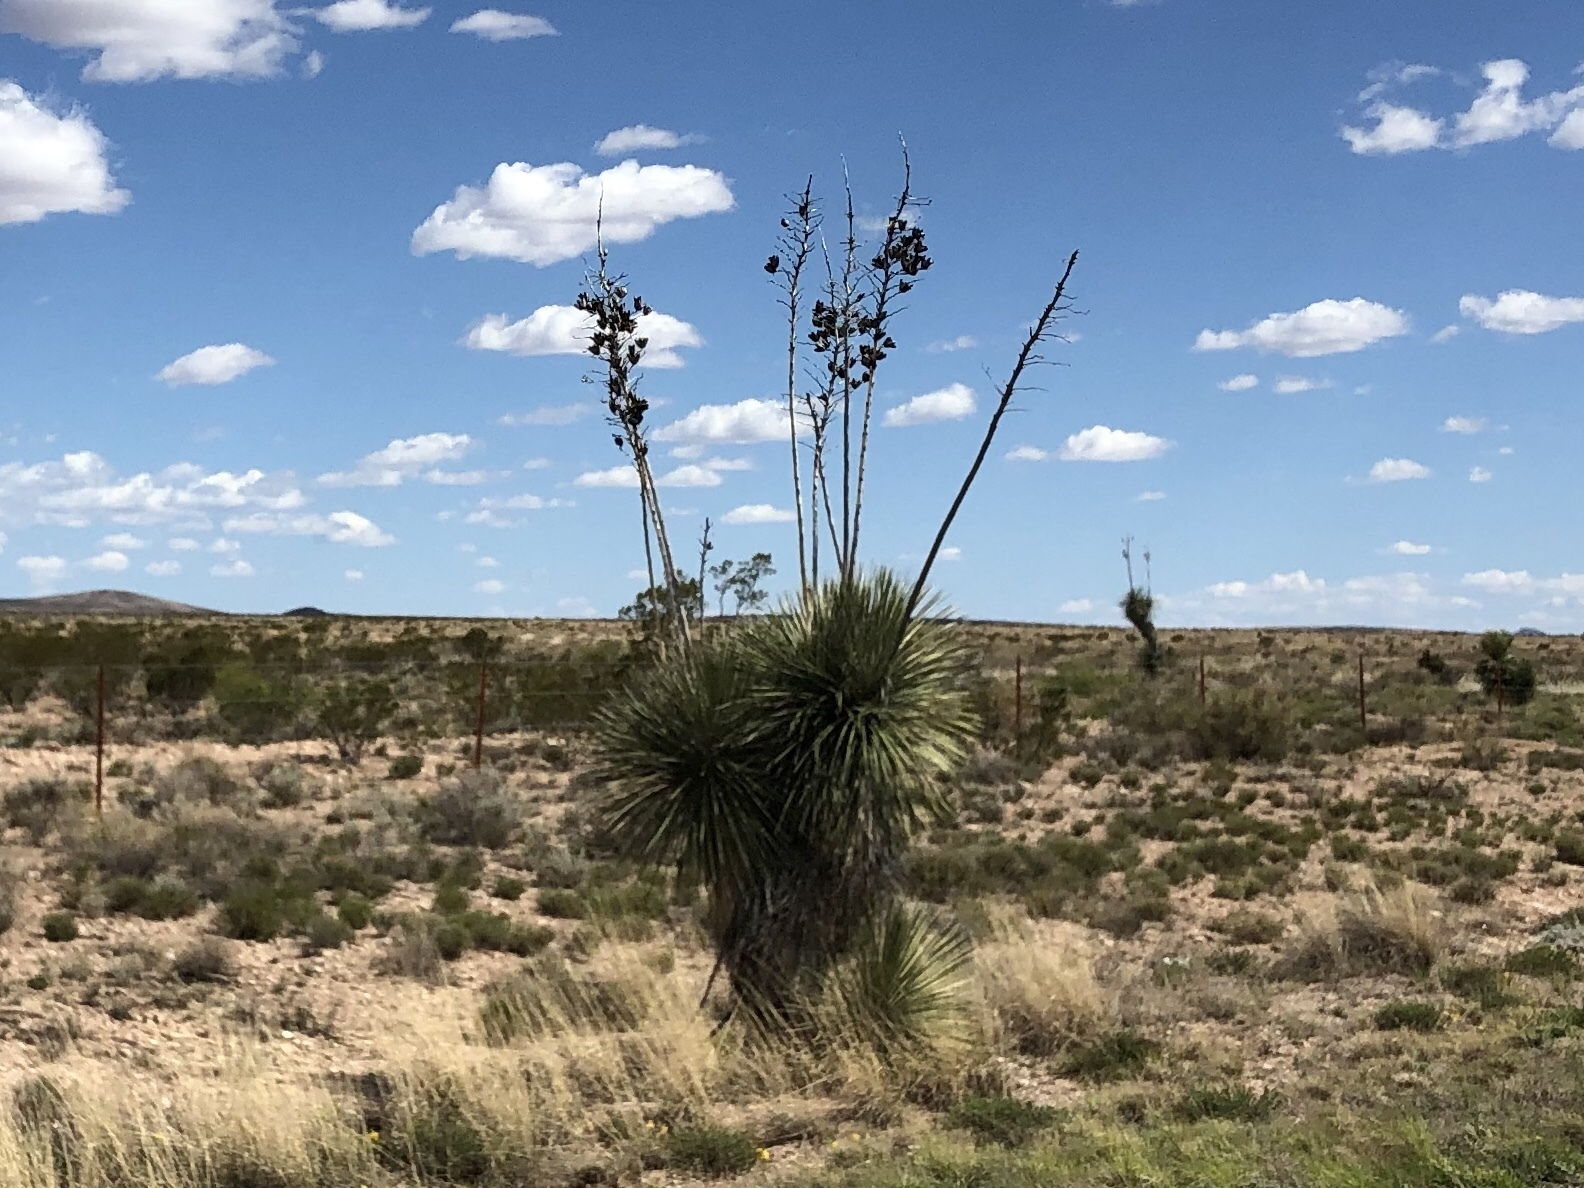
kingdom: Plantae
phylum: Tracheophyta
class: Liliopsida
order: Asparagales
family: Asparagaceae
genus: Yucca
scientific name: Yucca elata
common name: Palmella
